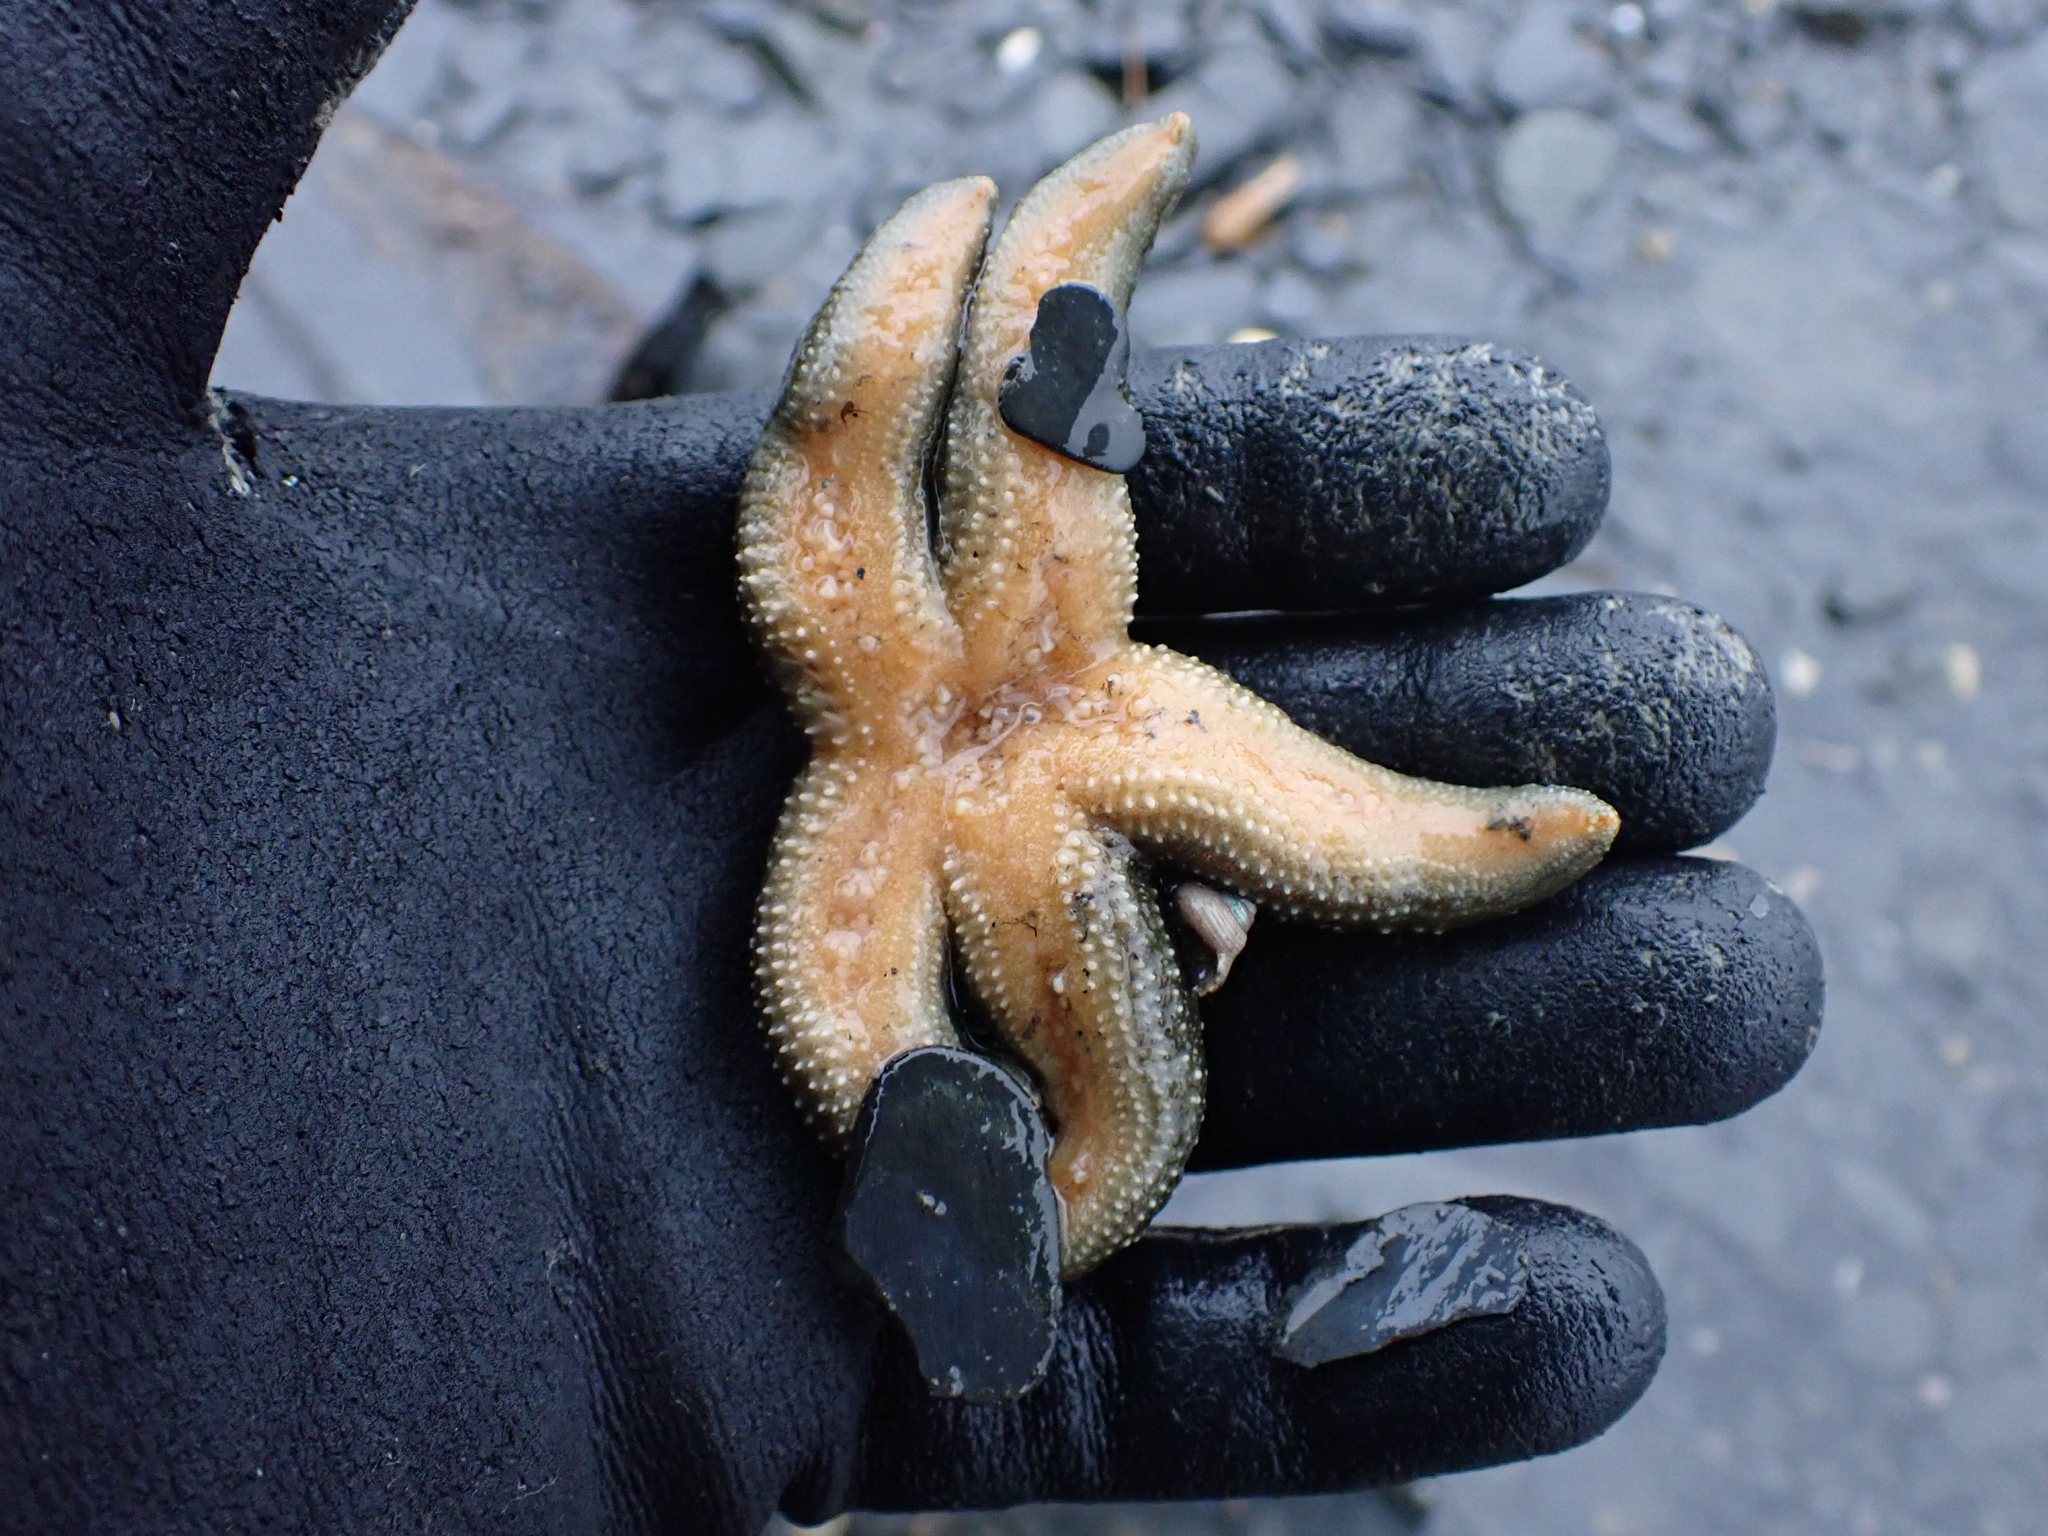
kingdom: Animalia
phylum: Echinodermata
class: Asteroidea
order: Forcipulatida
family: Asteriidae
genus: Evasterias
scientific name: Evasterias troschelii
